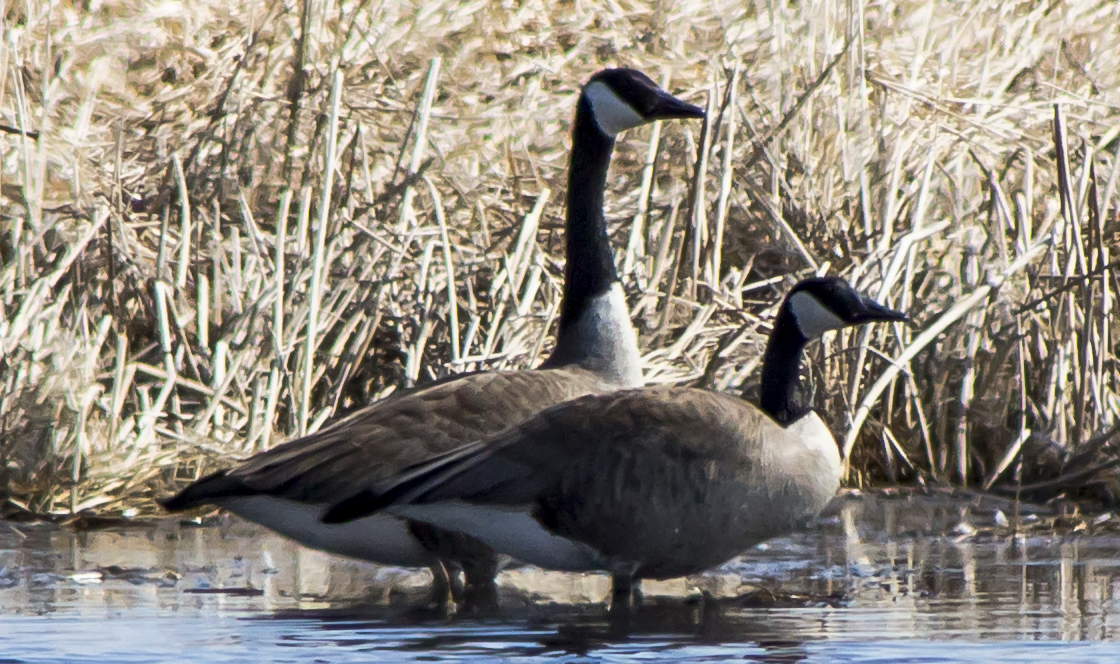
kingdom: Animalia
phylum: Chordata
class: Aves
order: Anseriformes
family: Anatidae
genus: Branta
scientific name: Branta canadensis
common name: Canada goose
